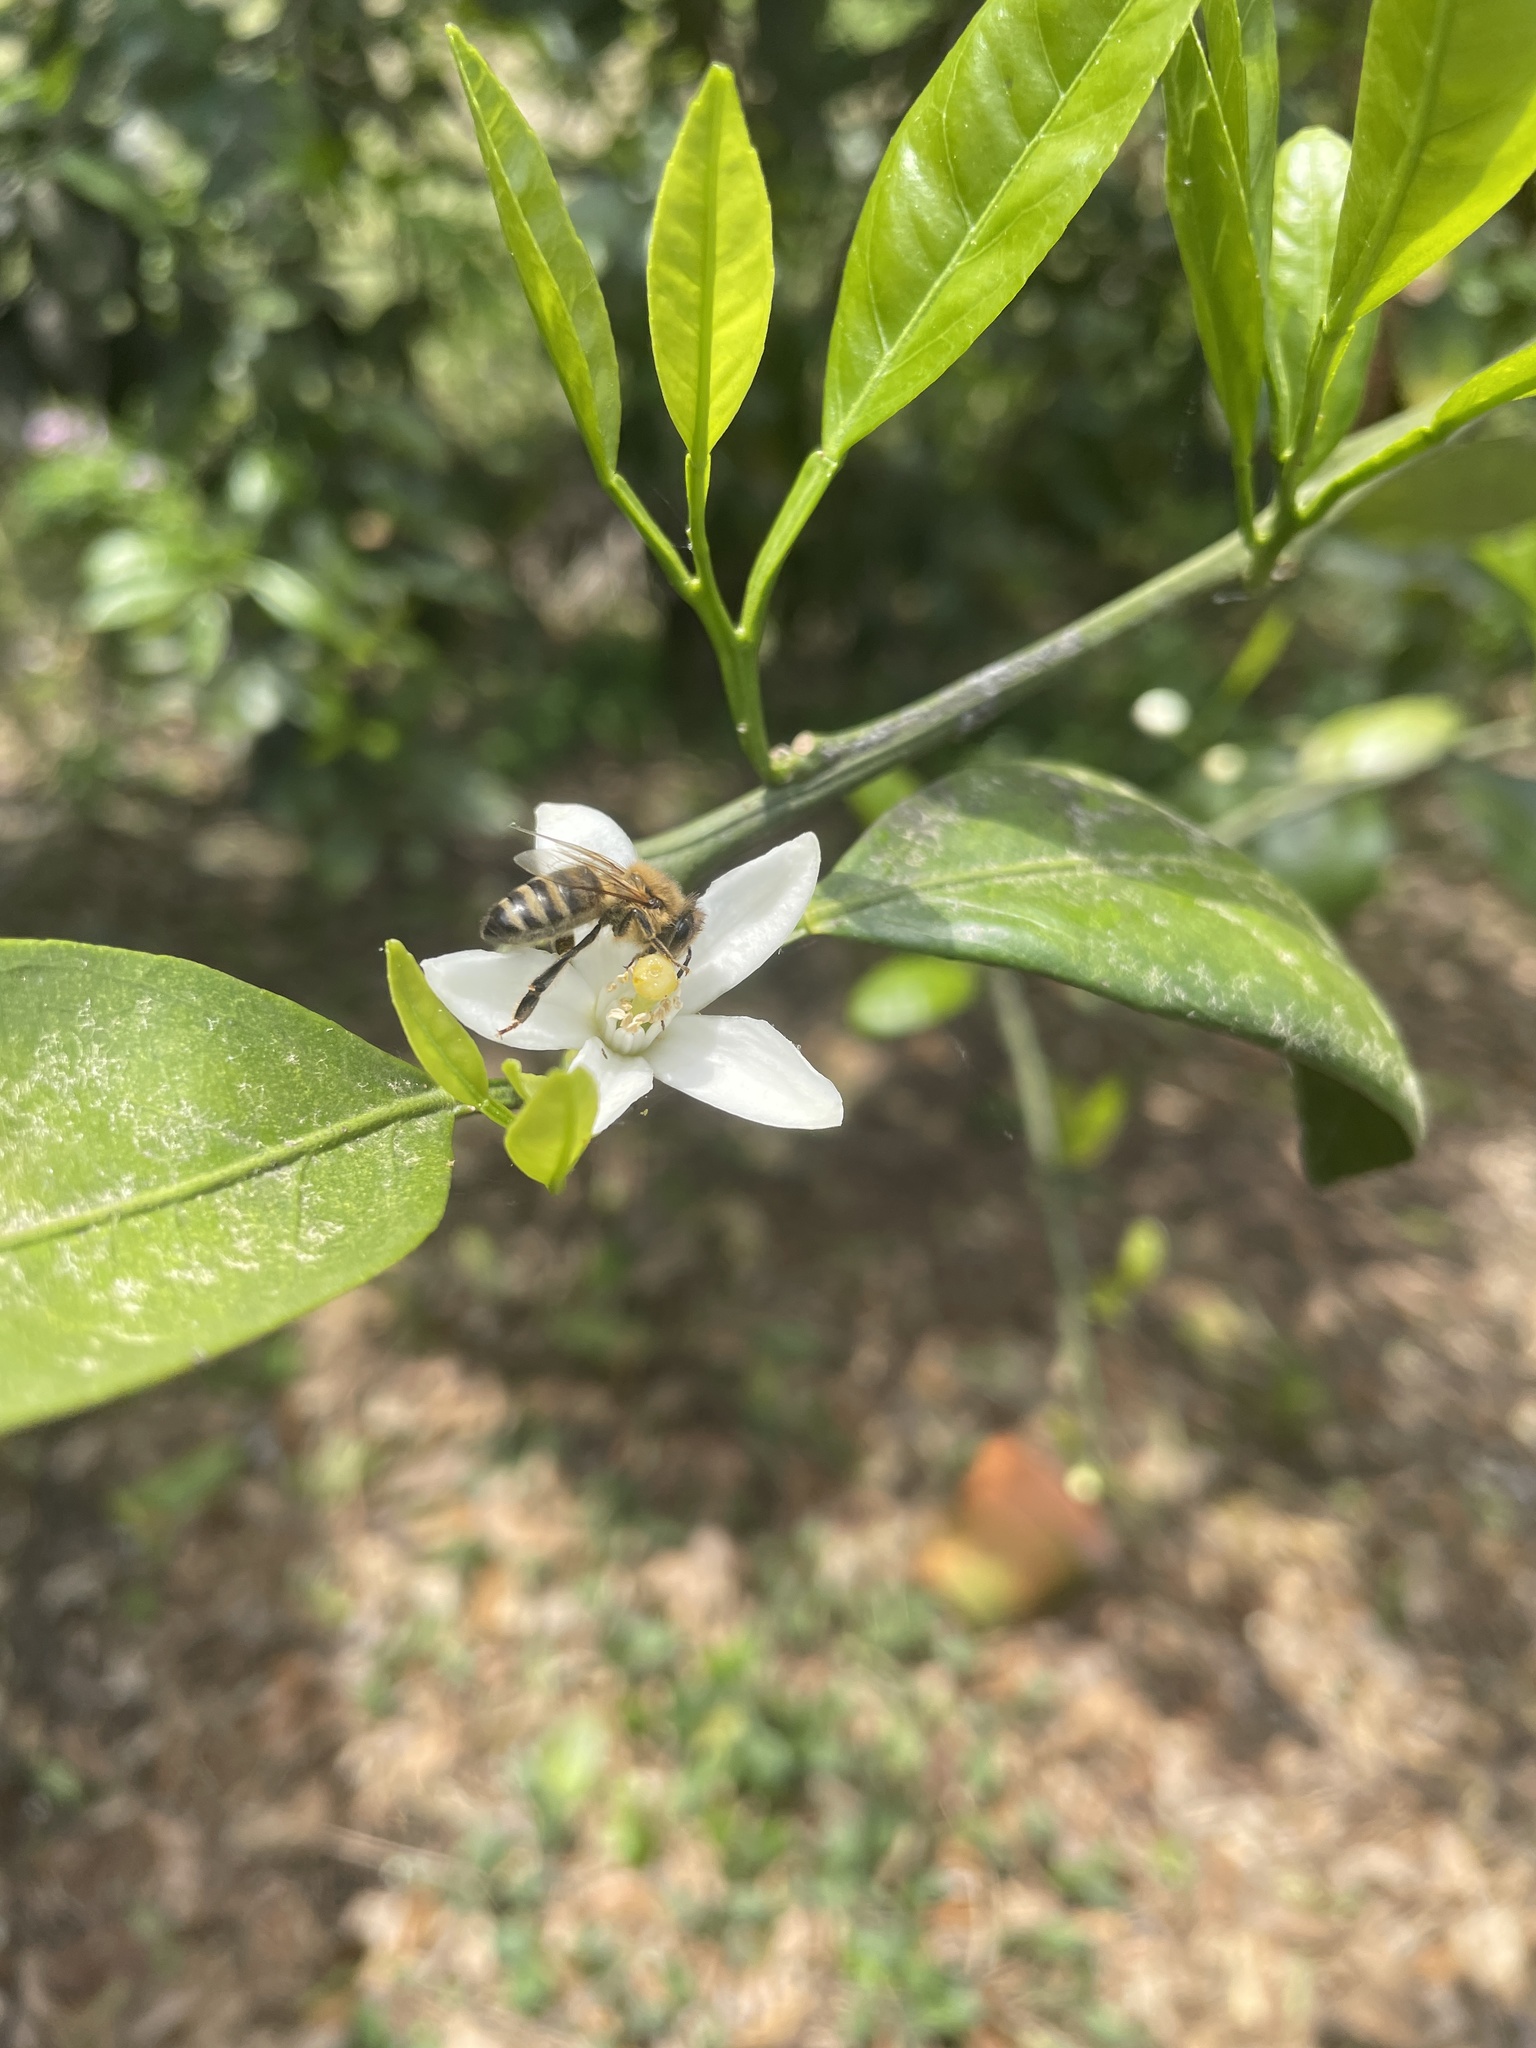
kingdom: Animalia
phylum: Arthropoda
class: Insecta
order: Hymenoptera
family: Apidae
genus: Apis
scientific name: Apis mellifera
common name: Honey bee
